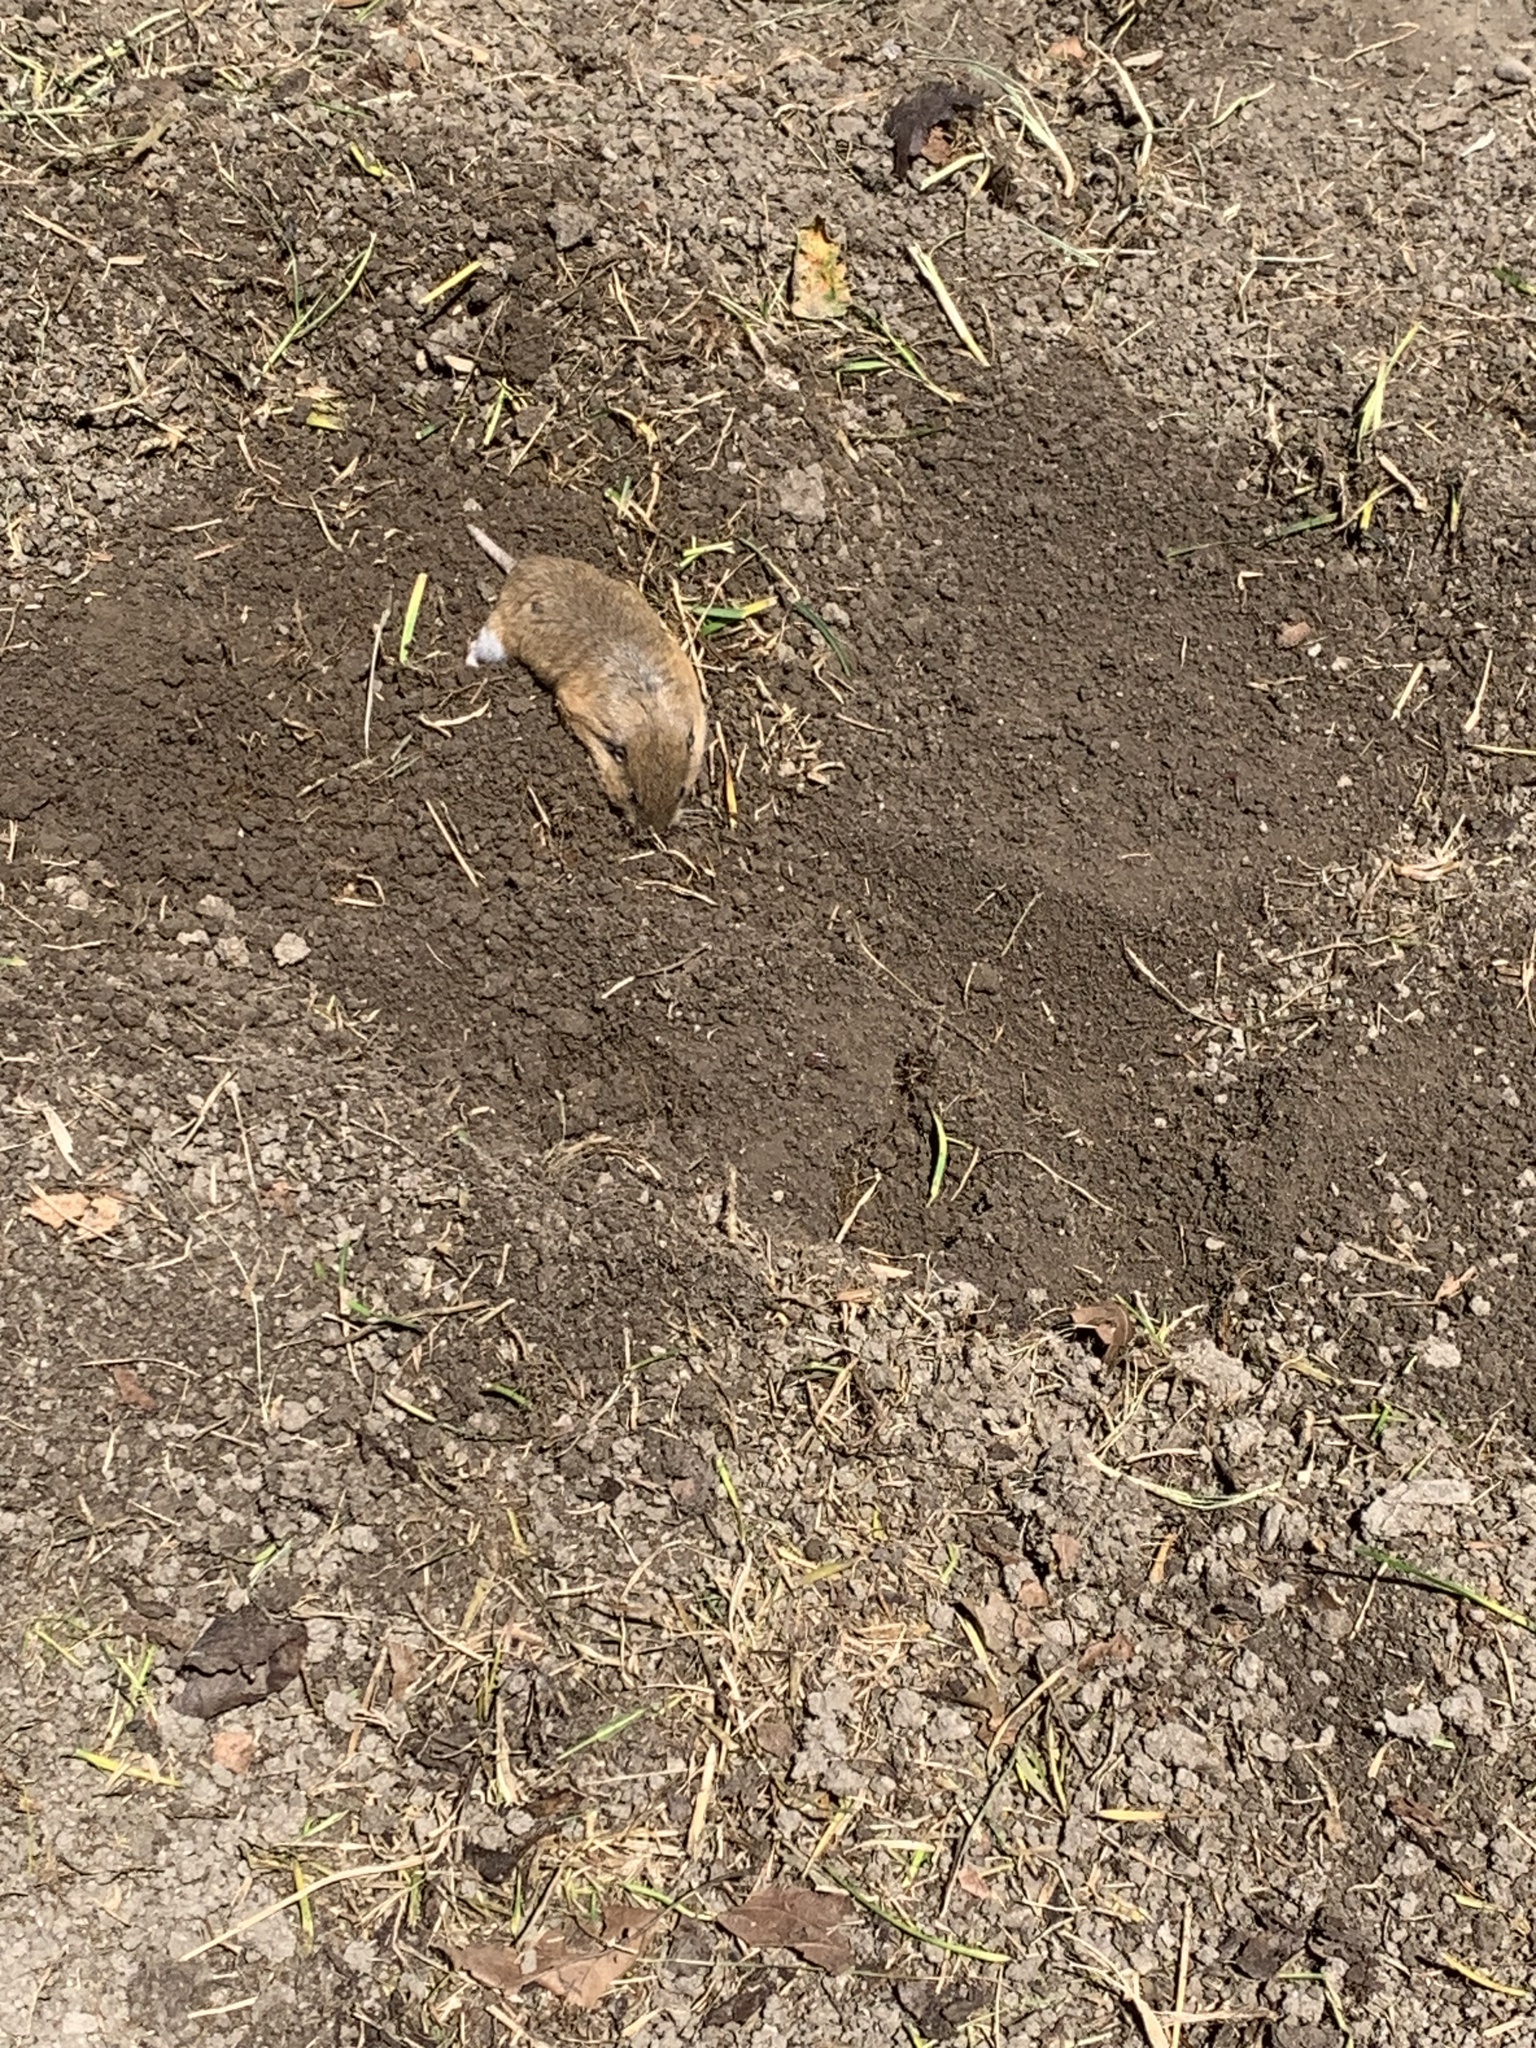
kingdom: Animalia
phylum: Chordata
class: Mammalia
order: Rodentia
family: Geomyidae
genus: Thomomys
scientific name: Thomomys bottae
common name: Botta's pocket gopher
